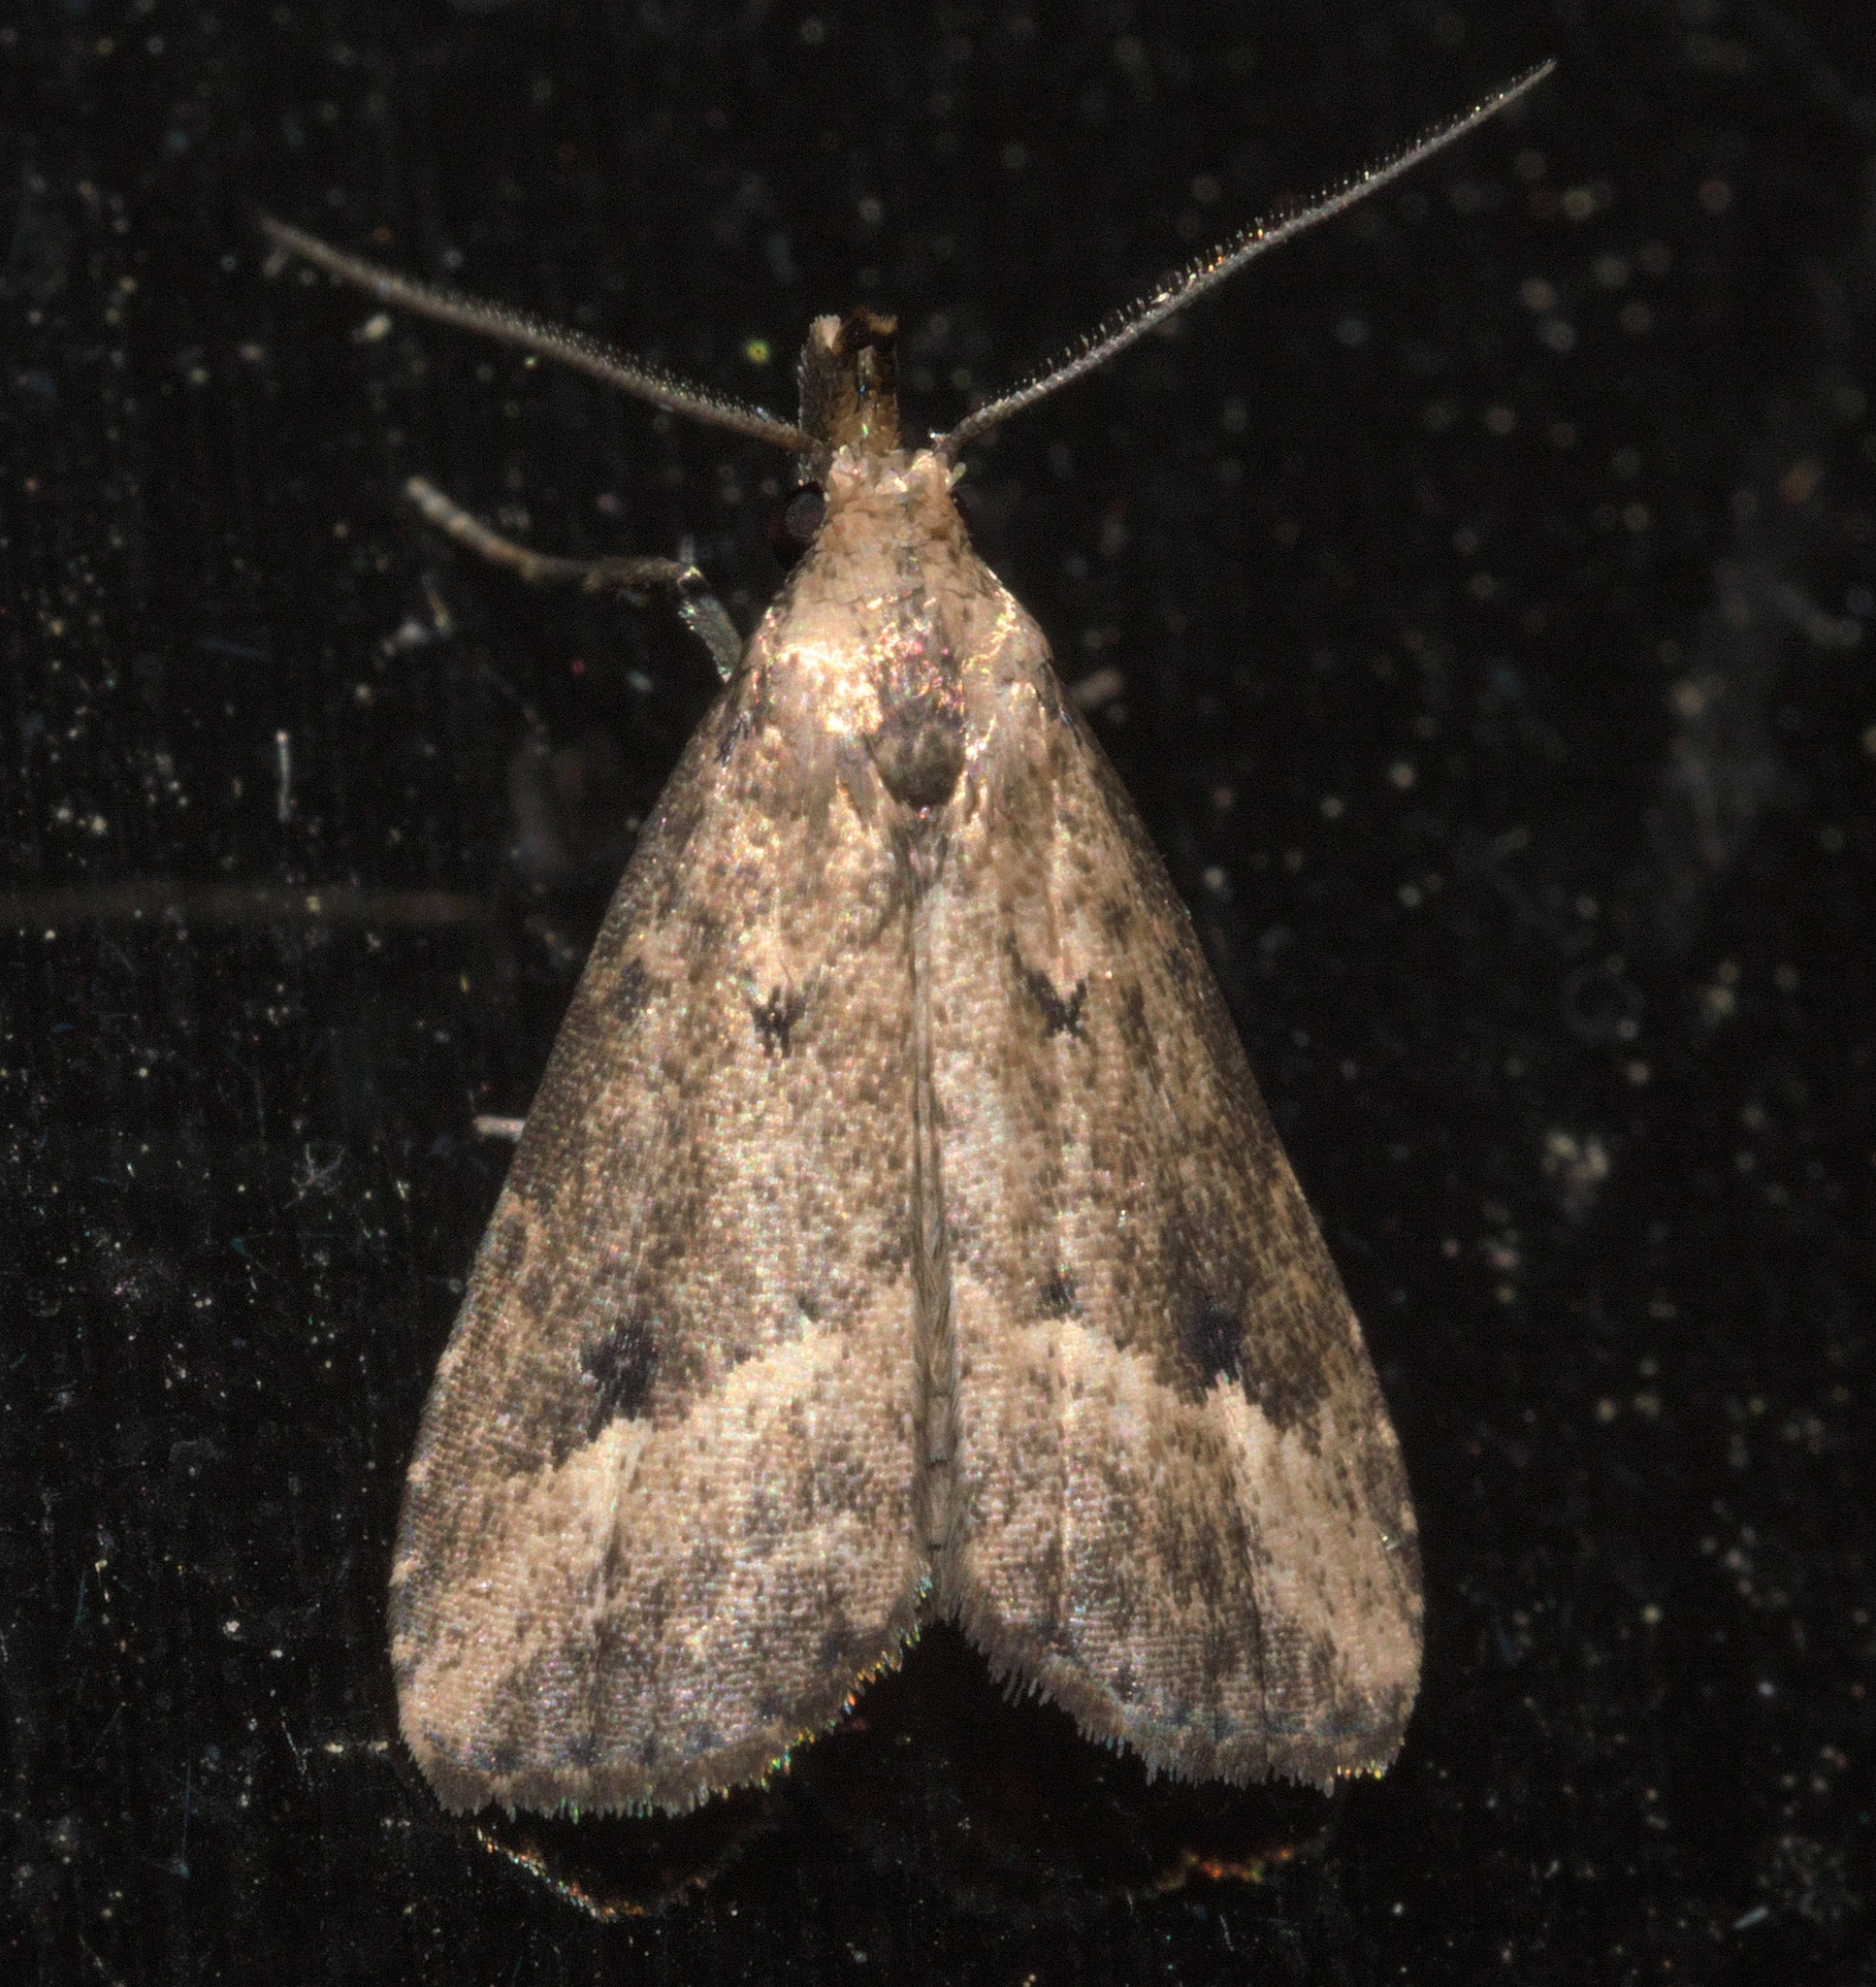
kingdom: Animalia
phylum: Arthropoda
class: Insecta
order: Lepidoptera
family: Erebidae
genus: Schrankia
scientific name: Schrankia
